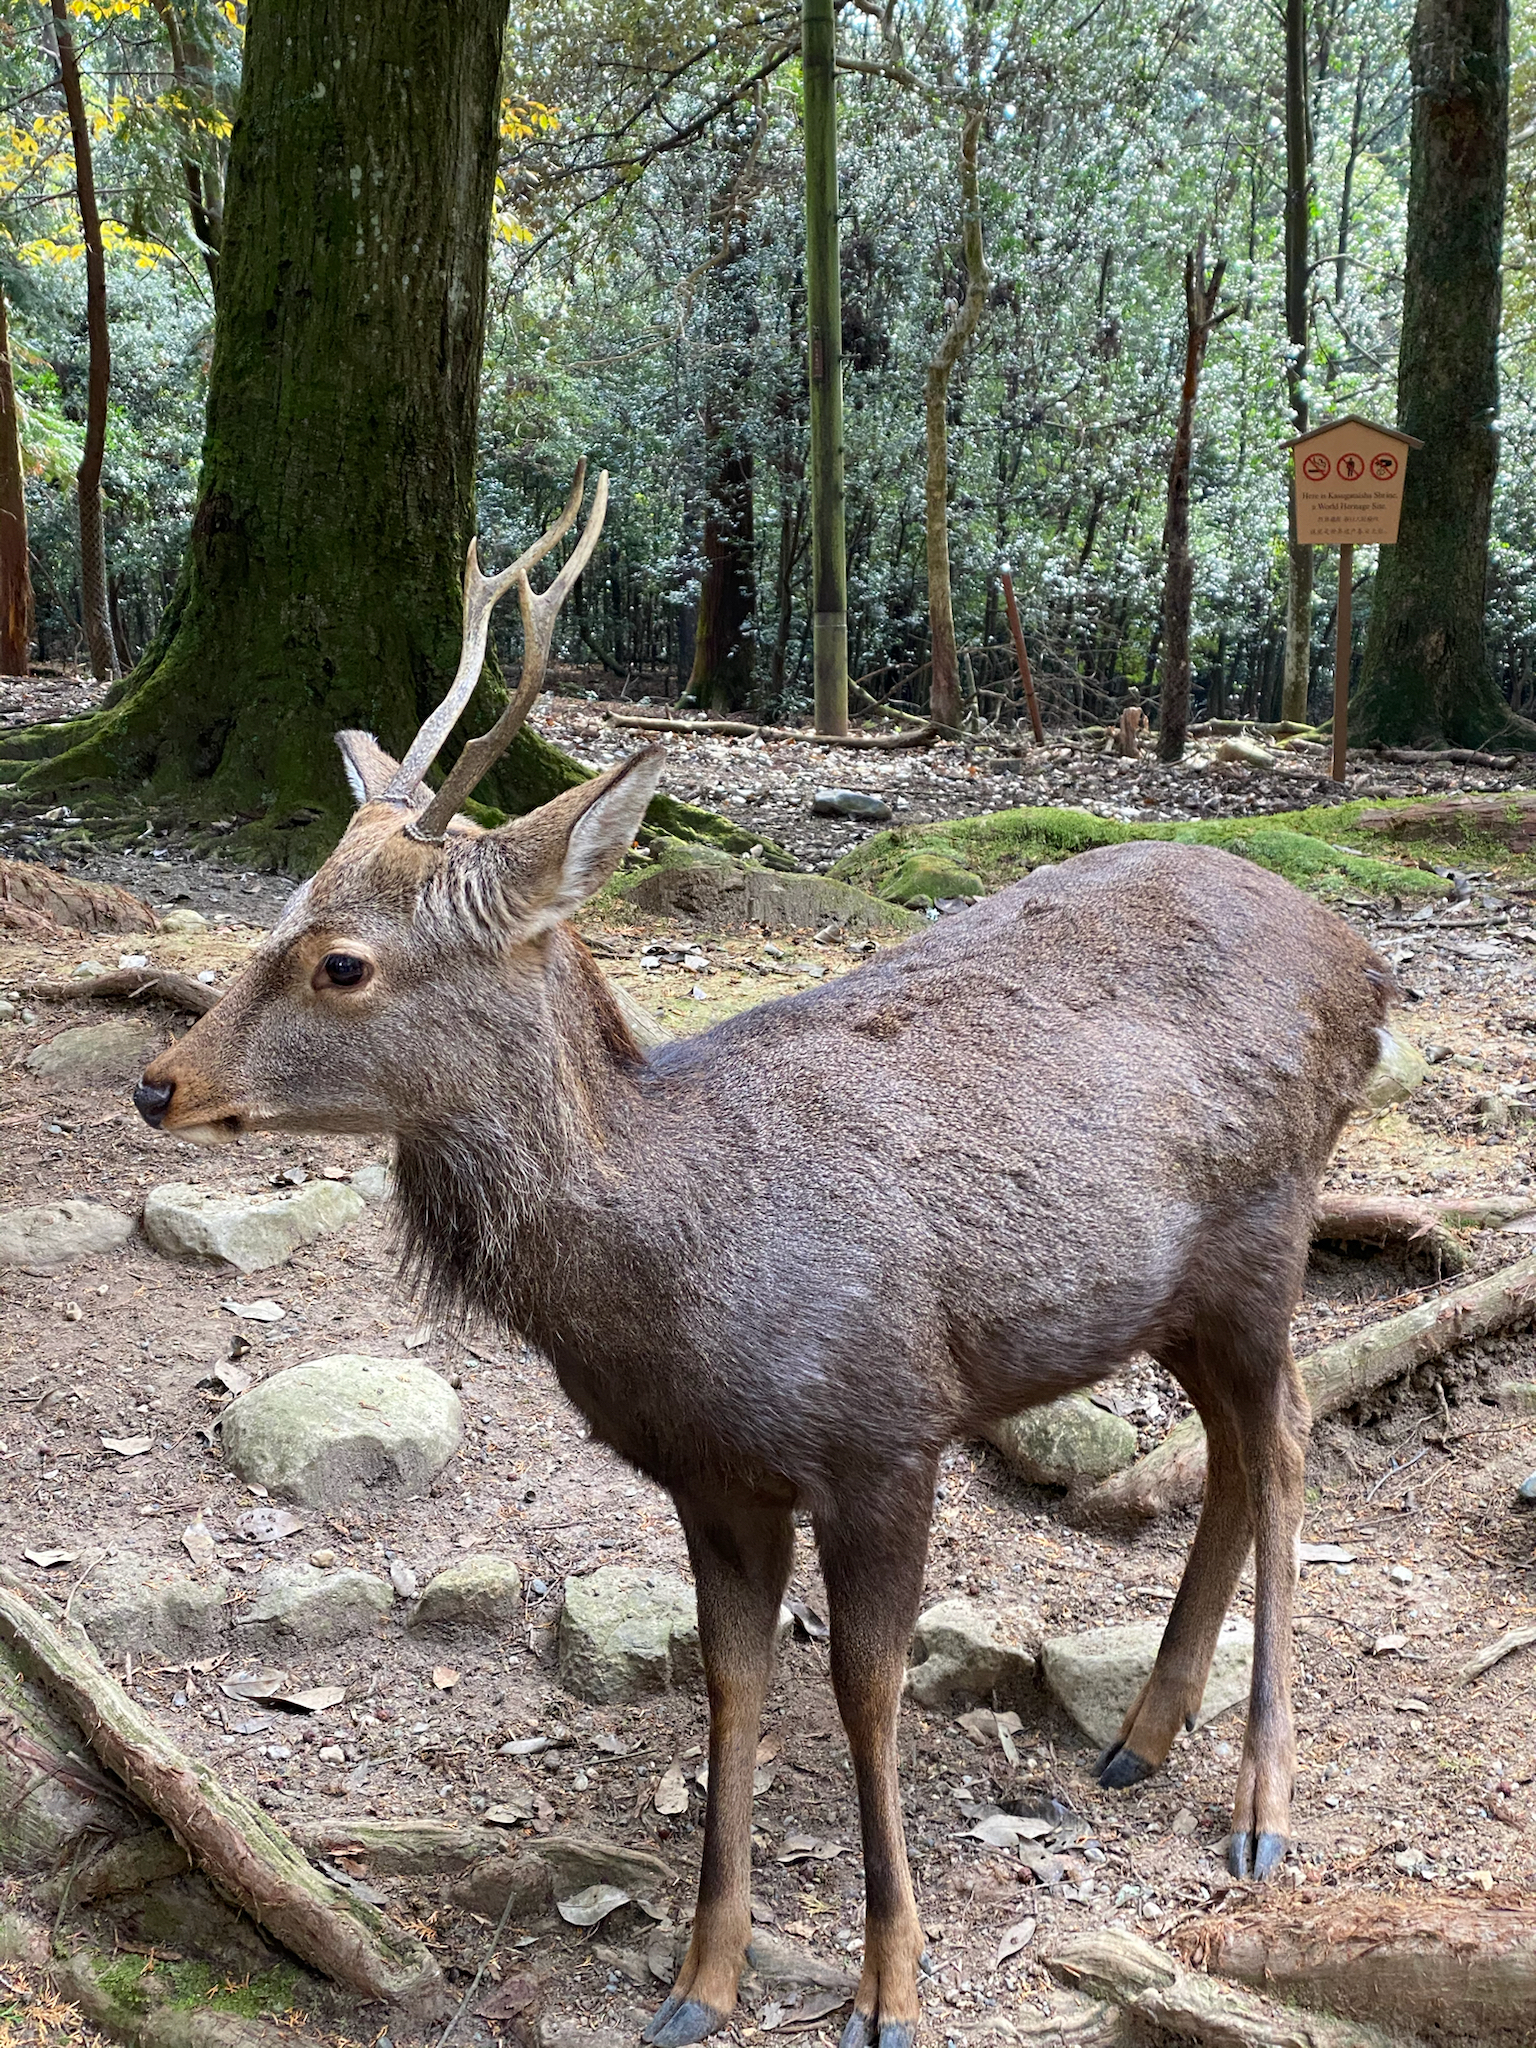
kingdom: Animalia
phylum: Chordata
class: Mammalia
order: Artiodactyla
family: Cervidae
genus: Cervus
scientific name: Cervus nippon
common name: Sika deer
